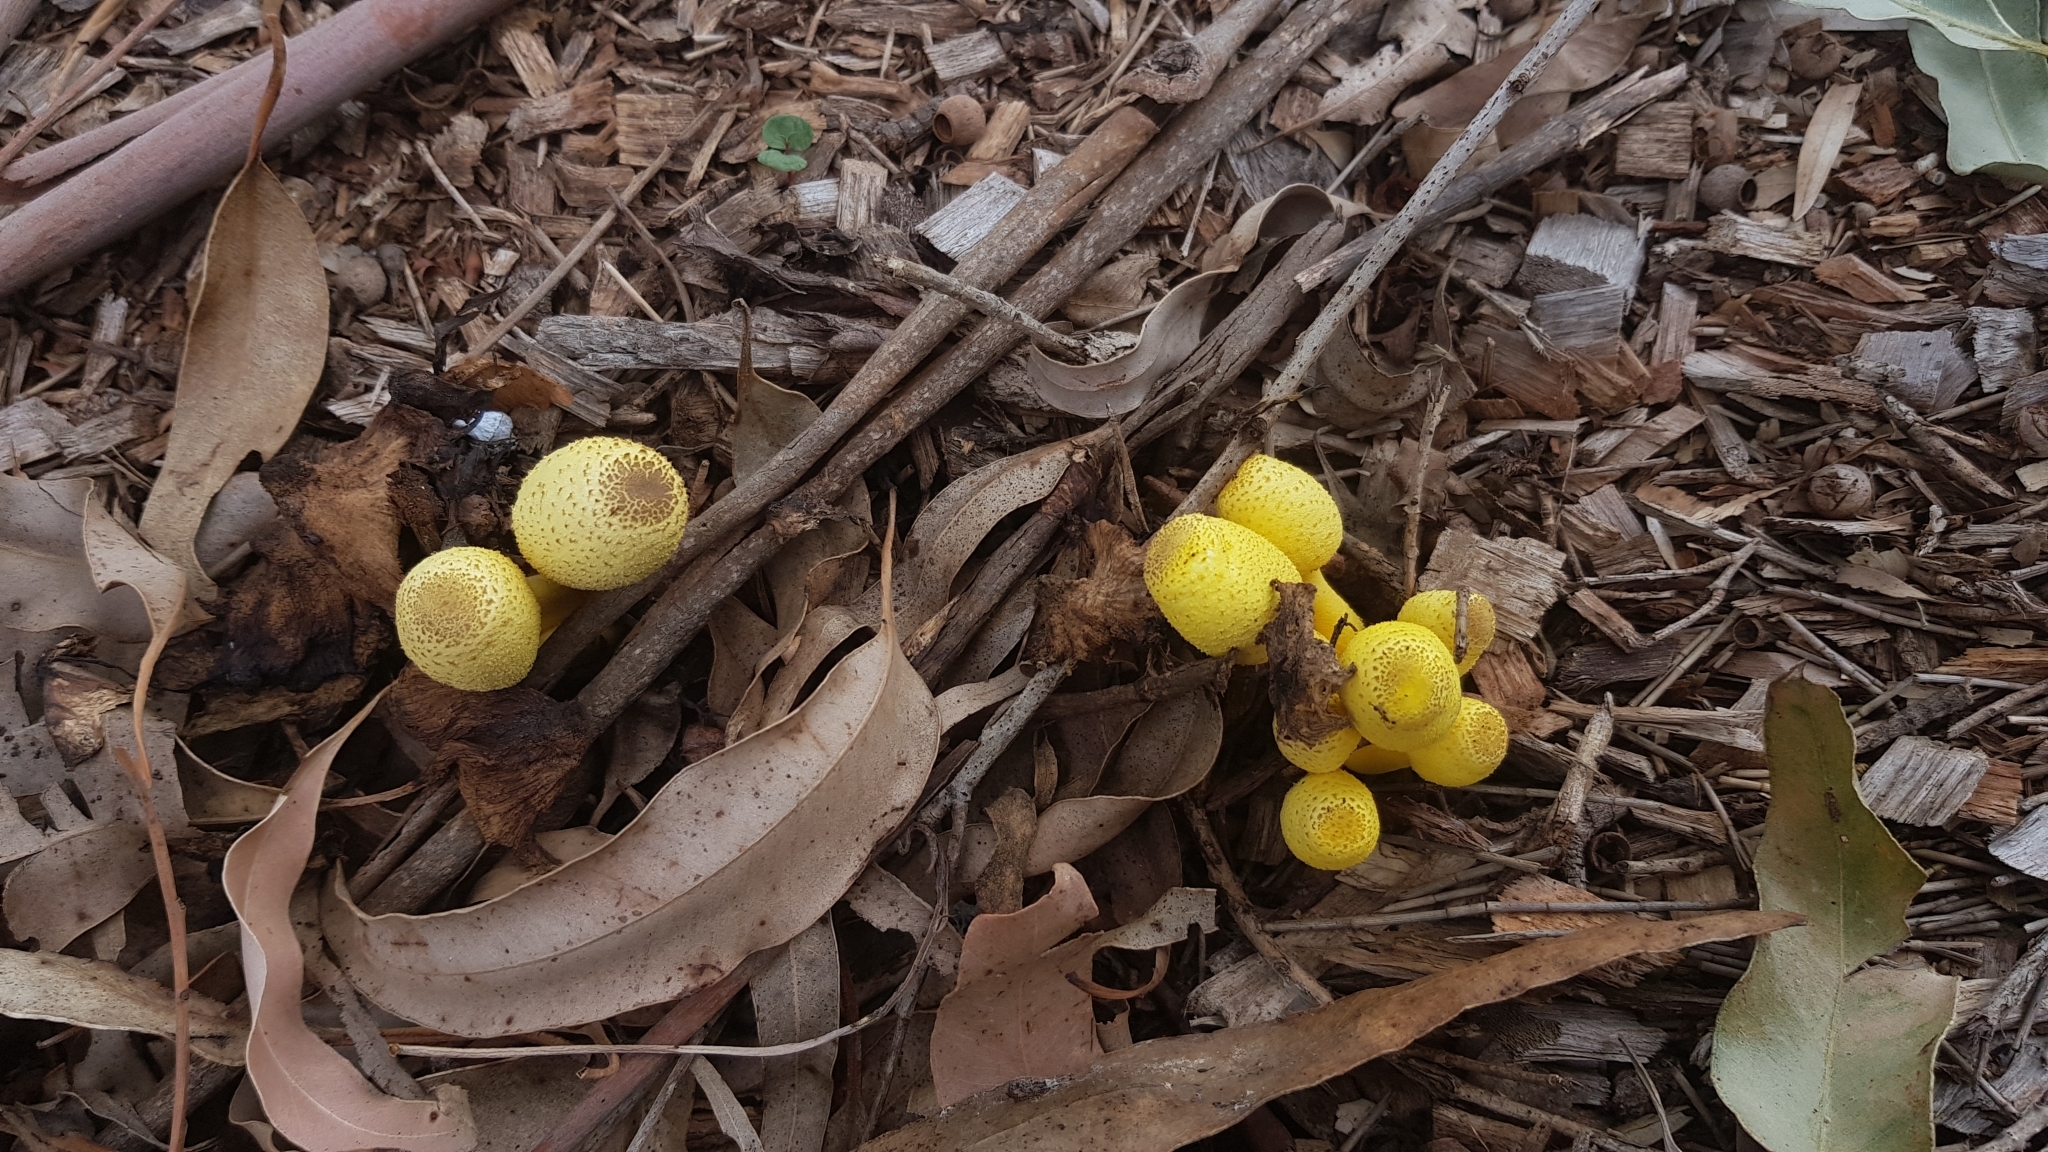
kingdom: Fungi
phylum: Basidiomycota
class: Agaricomycetes
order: Agaricales
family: Agaricaceae
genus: Leucocoprinus
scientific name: Leucocoprinus birnbaumii
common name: Plantpot dapperling
